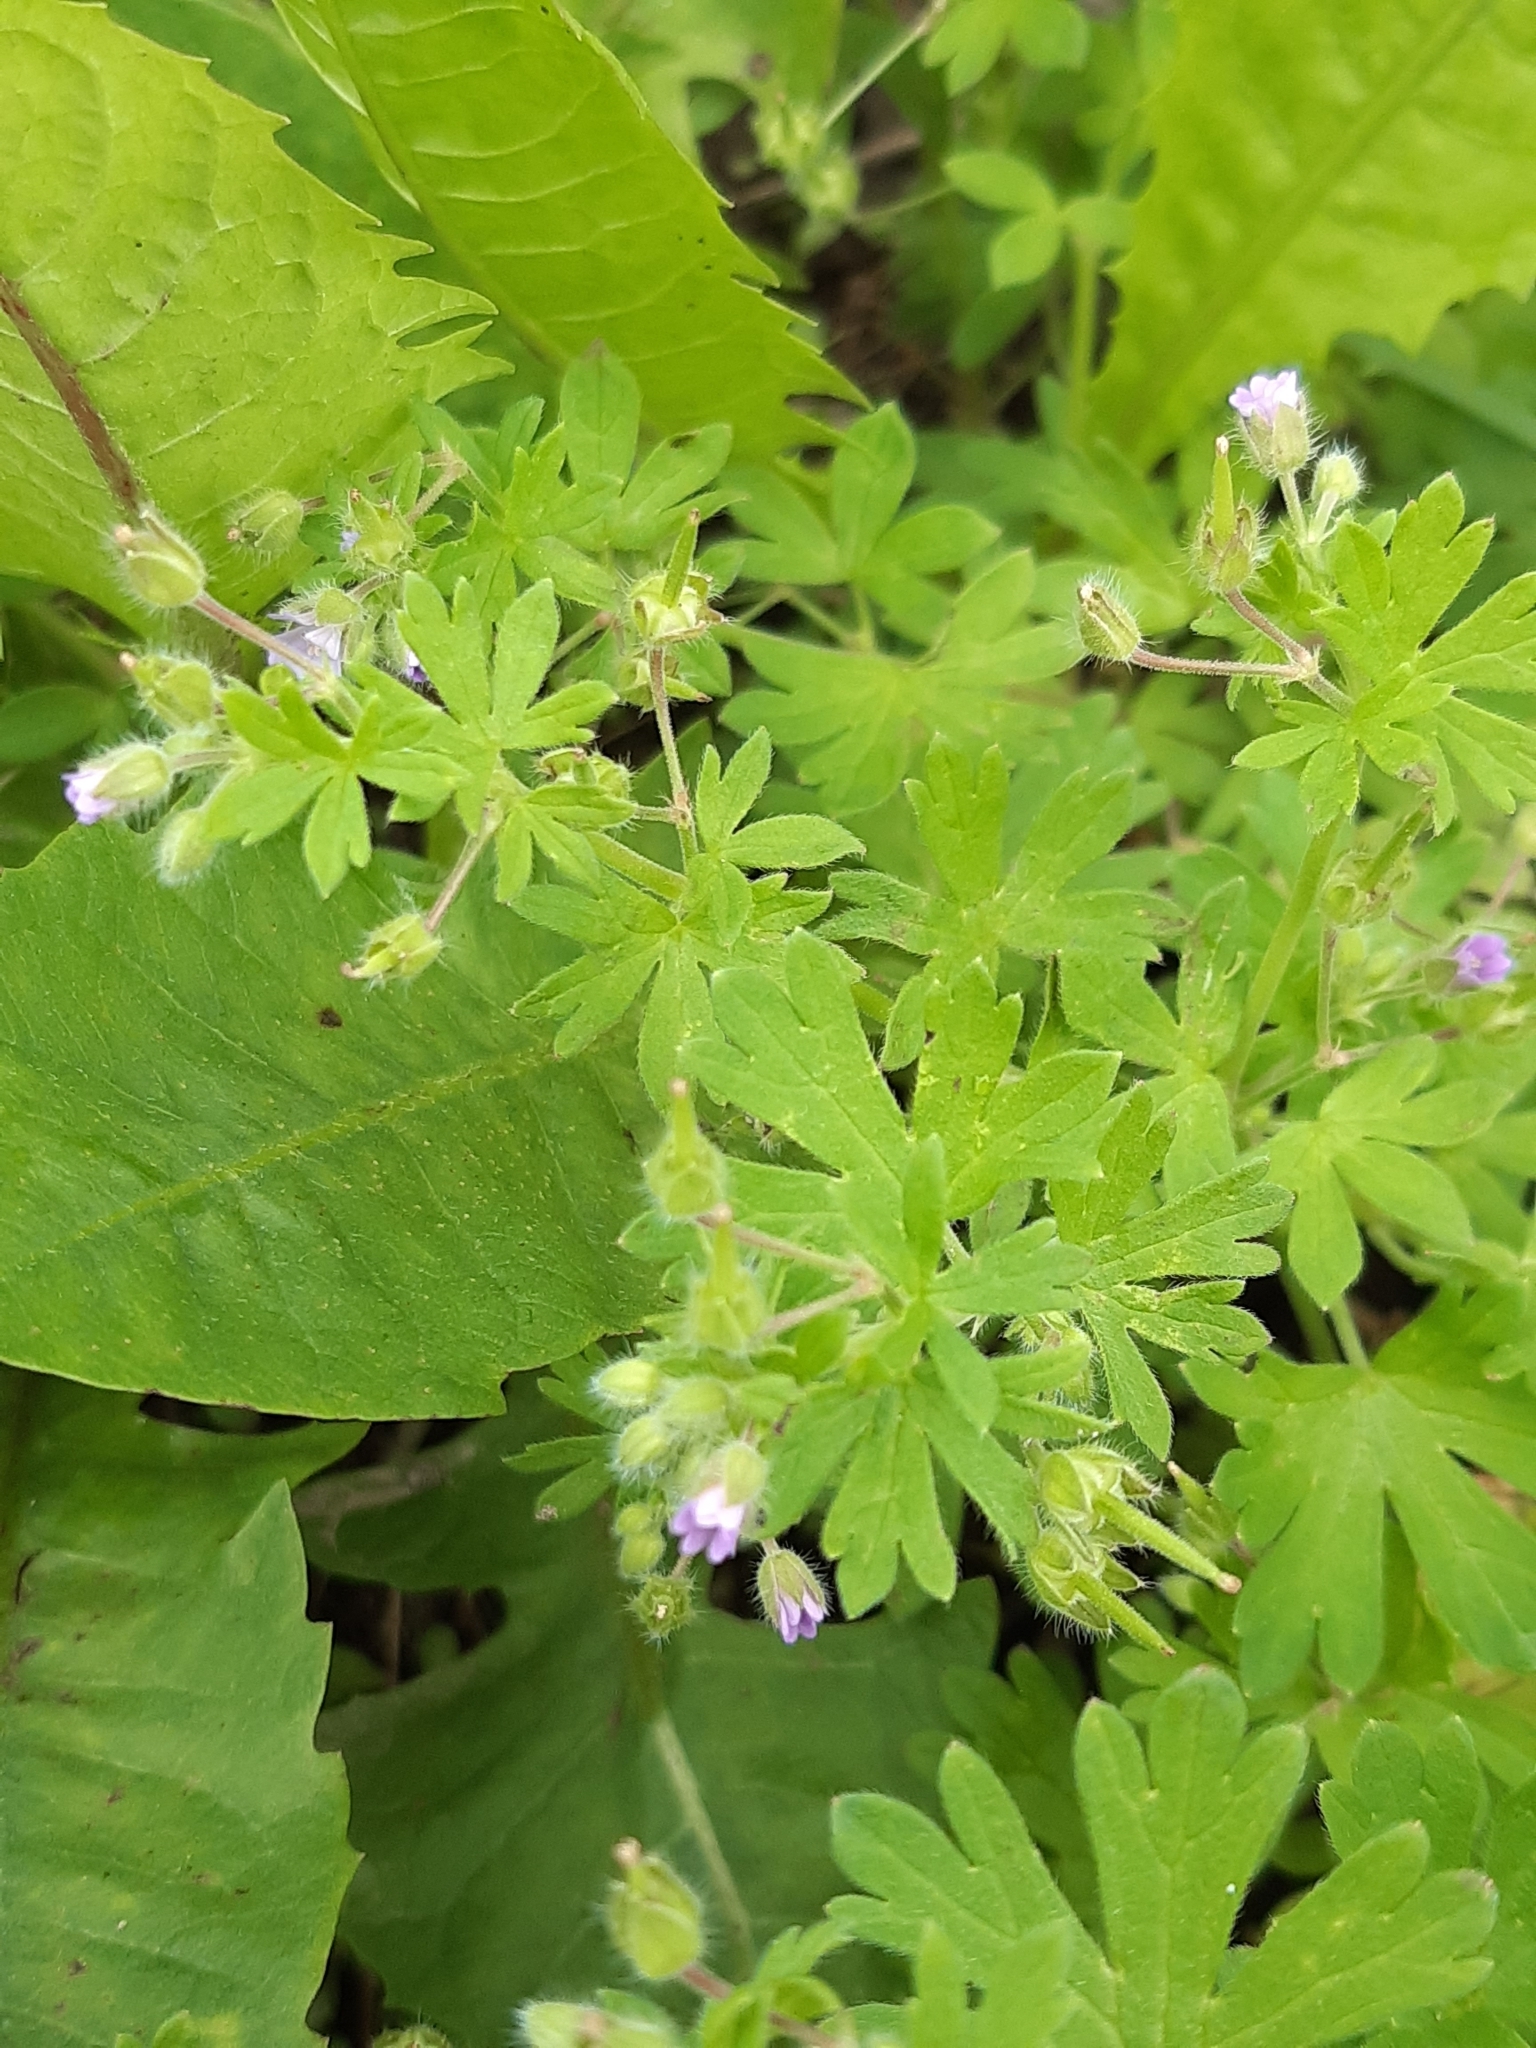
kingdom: Plantae
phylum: Tracheophyta
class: Magnoliopsida
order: Geraniales
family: Geraniaceae
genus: Geranium
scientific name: Geranium pusillum
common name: Small geranium
